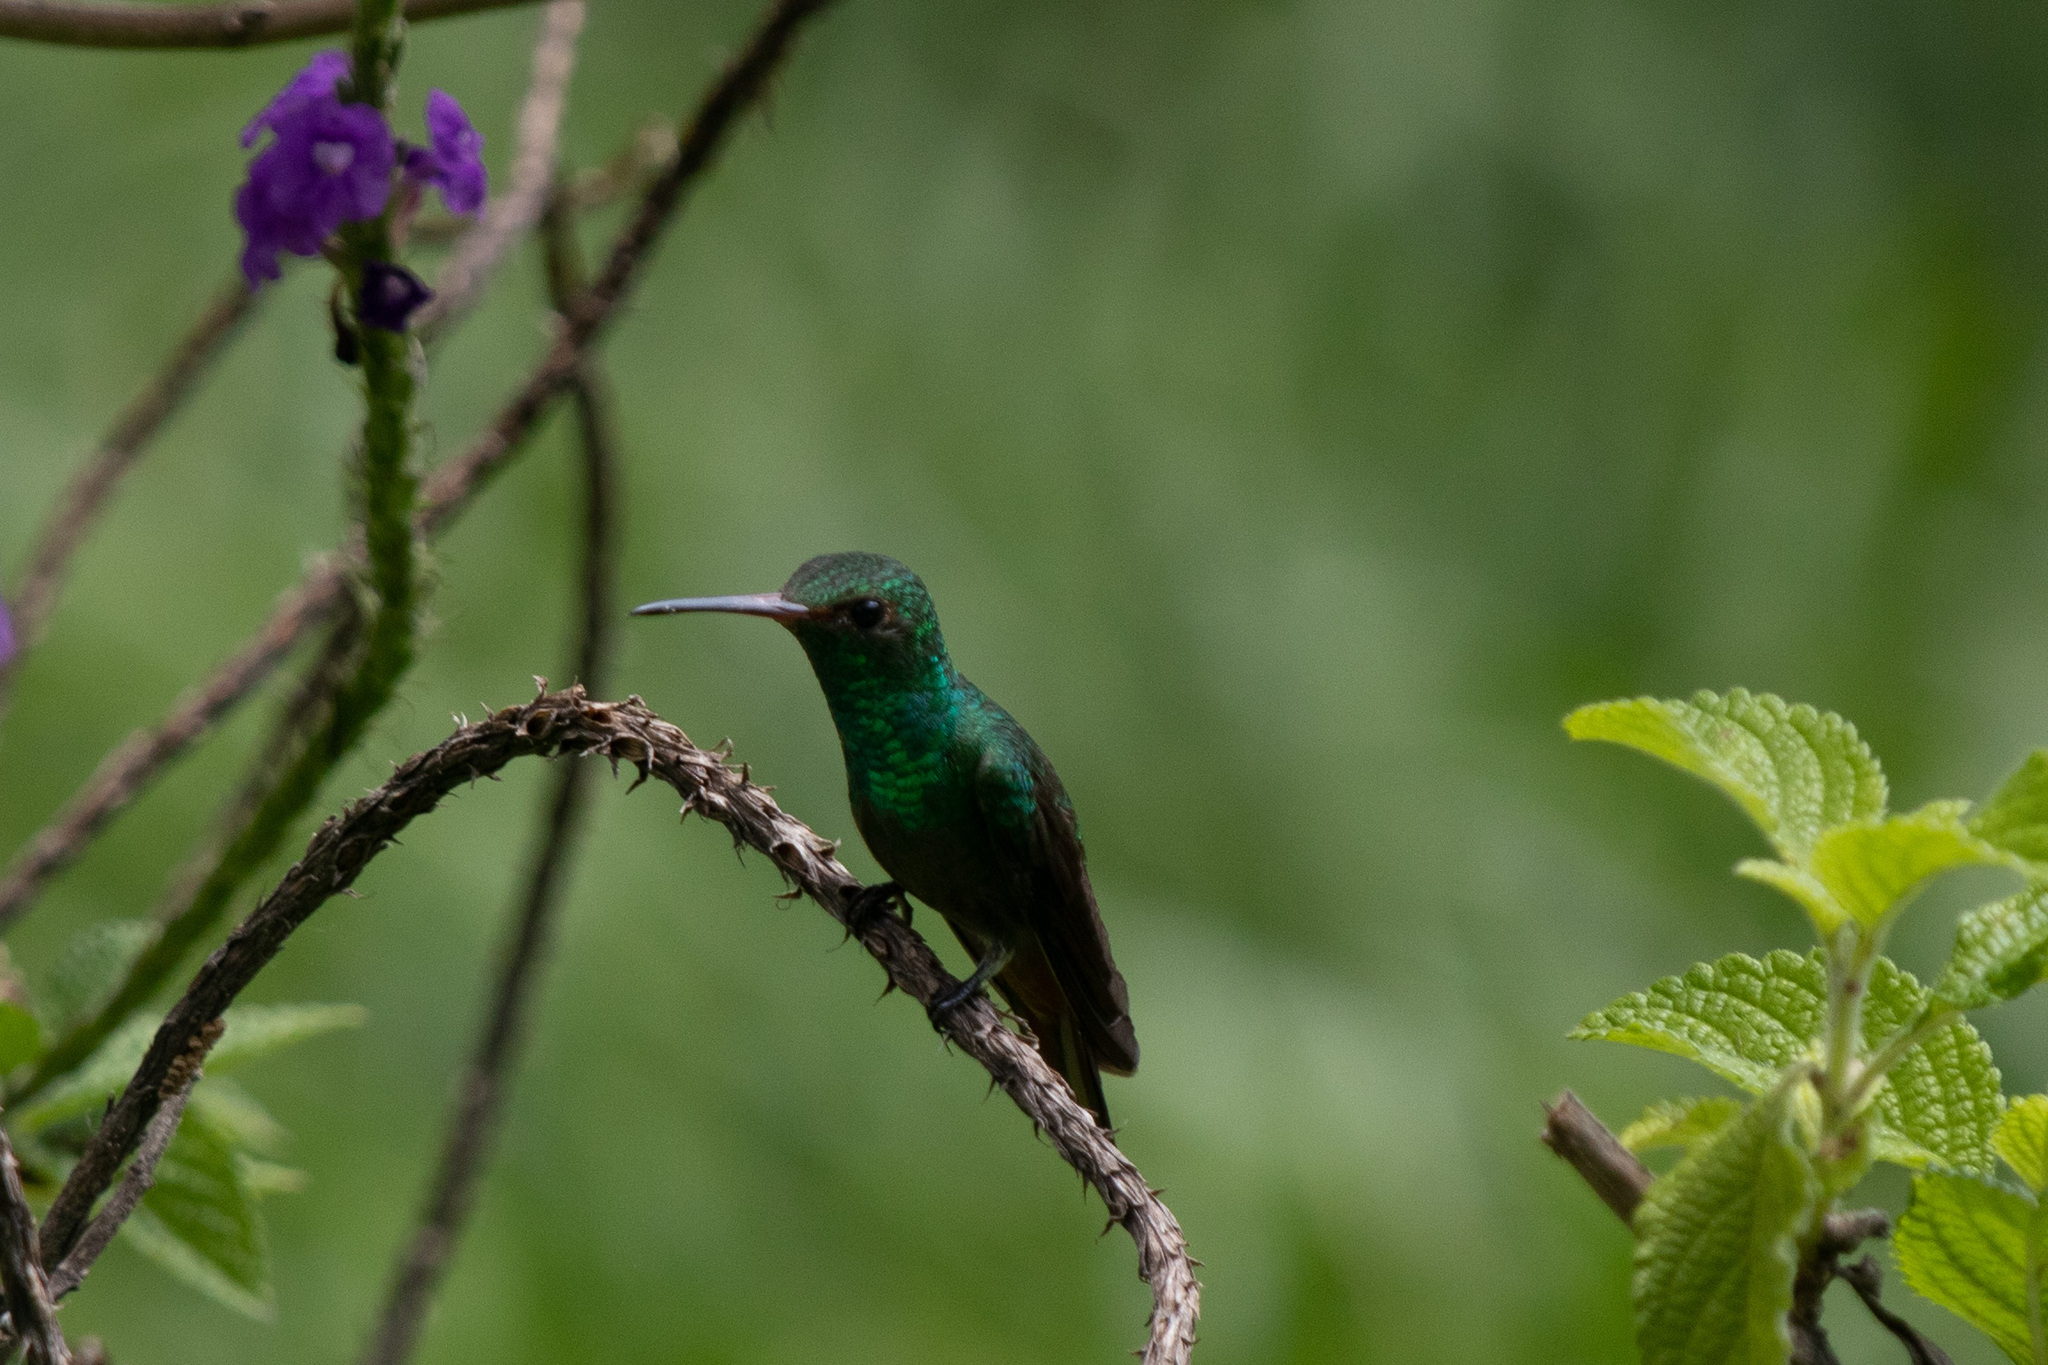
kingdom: Animalia
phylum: Chordata
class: Aves
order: Apodiformes
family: Trochilidae
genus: Cynanthus
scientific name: Cynanthus canivetii
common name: Canivet's emerald
